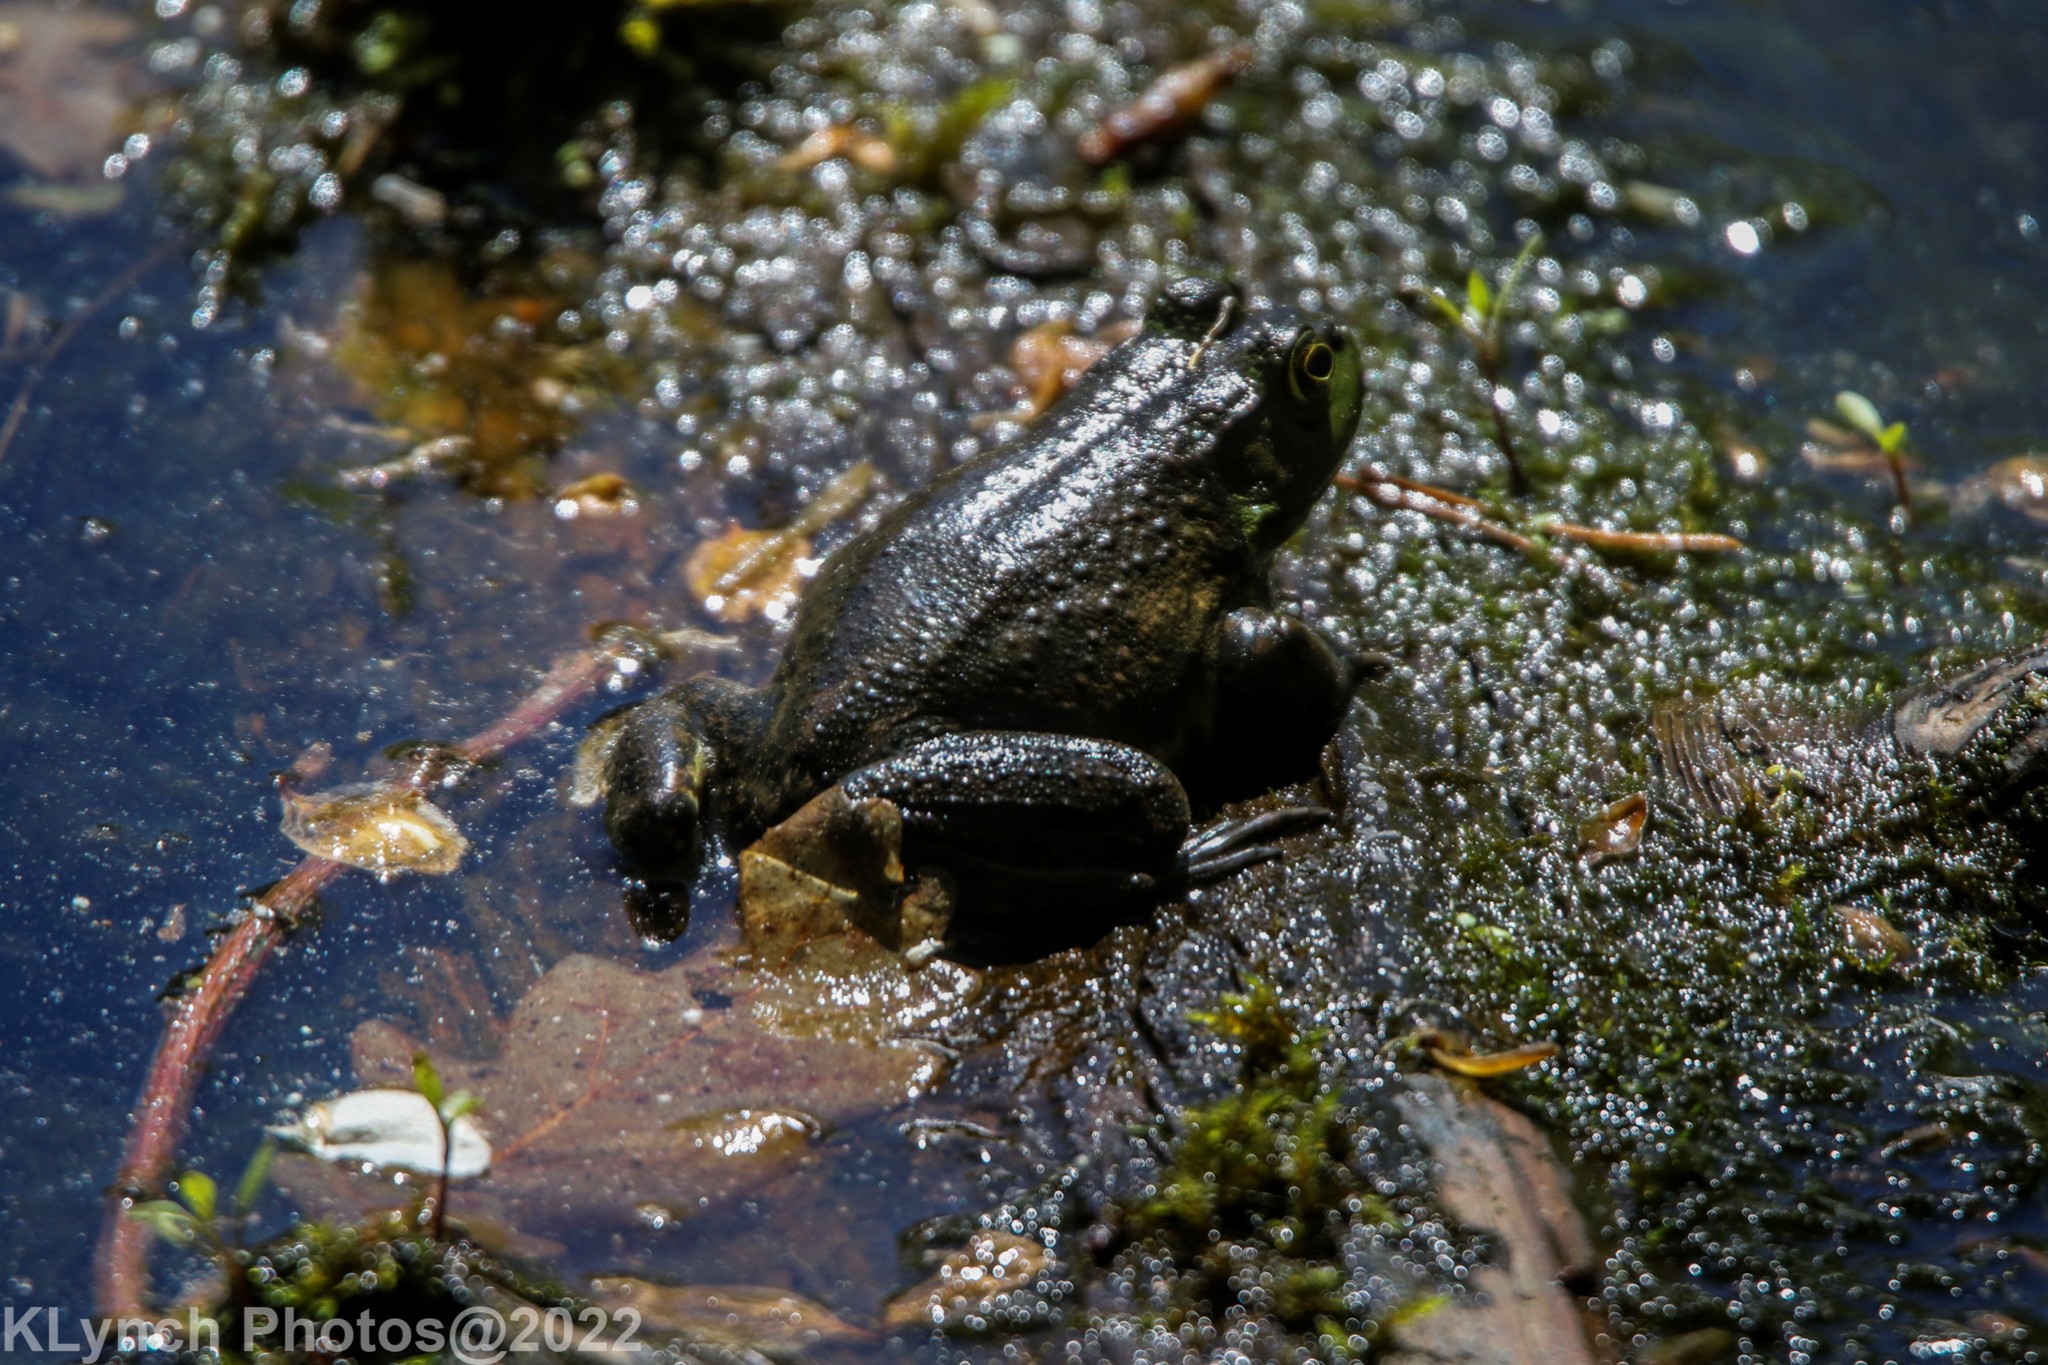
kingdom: Animalia
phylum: Chordata
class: Amphibia
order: Anura
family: Ranidae
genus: Lithobates
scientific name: Lithobates catesbeianus
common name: American bullfrog
